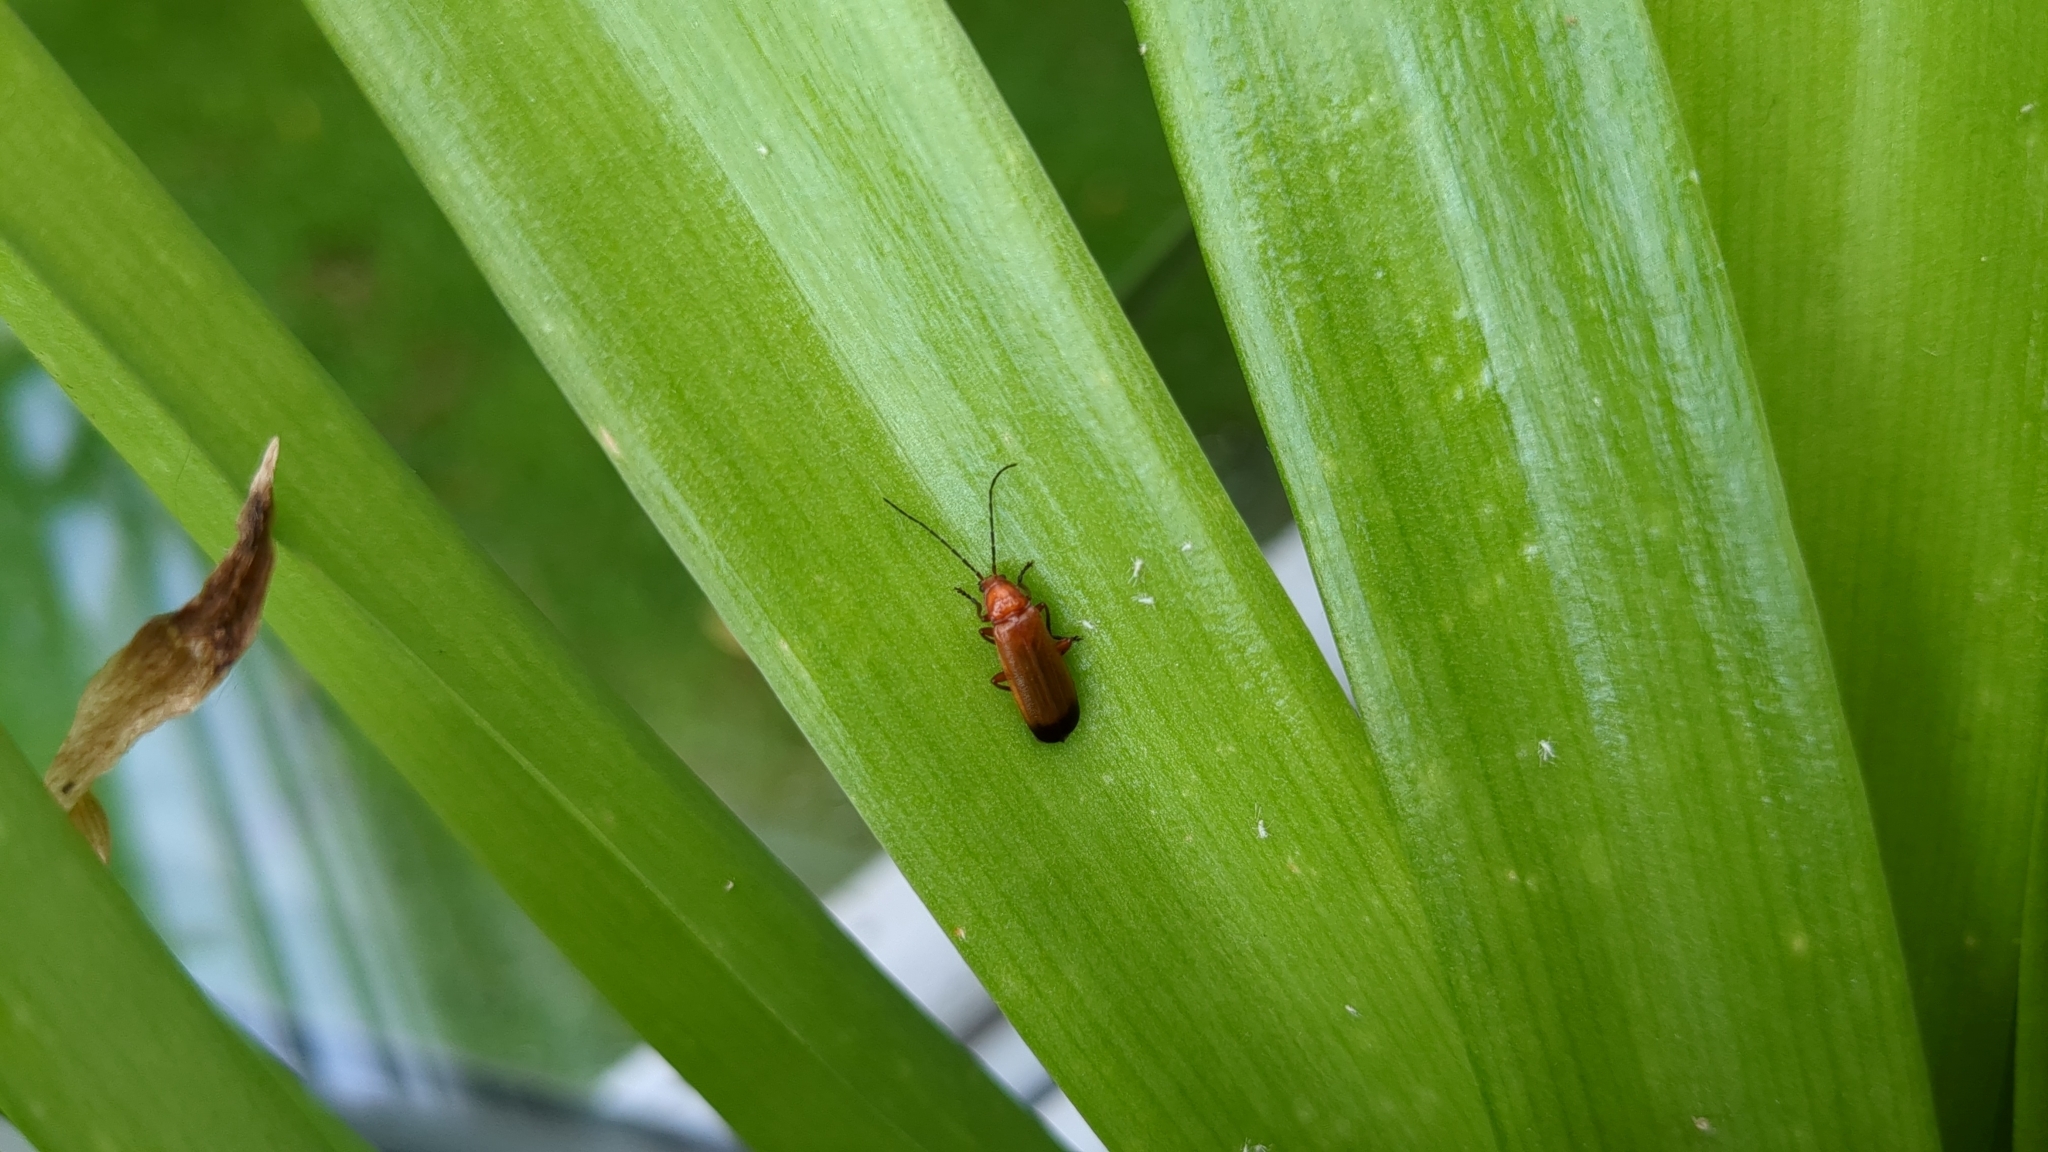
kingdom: Animalia
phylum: Arthropoda
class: Insecta
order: Coleoptera
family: Cantharidae
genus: Rhagonycha
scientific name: Rhagonycha fulva
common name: Common red soldier beetle
